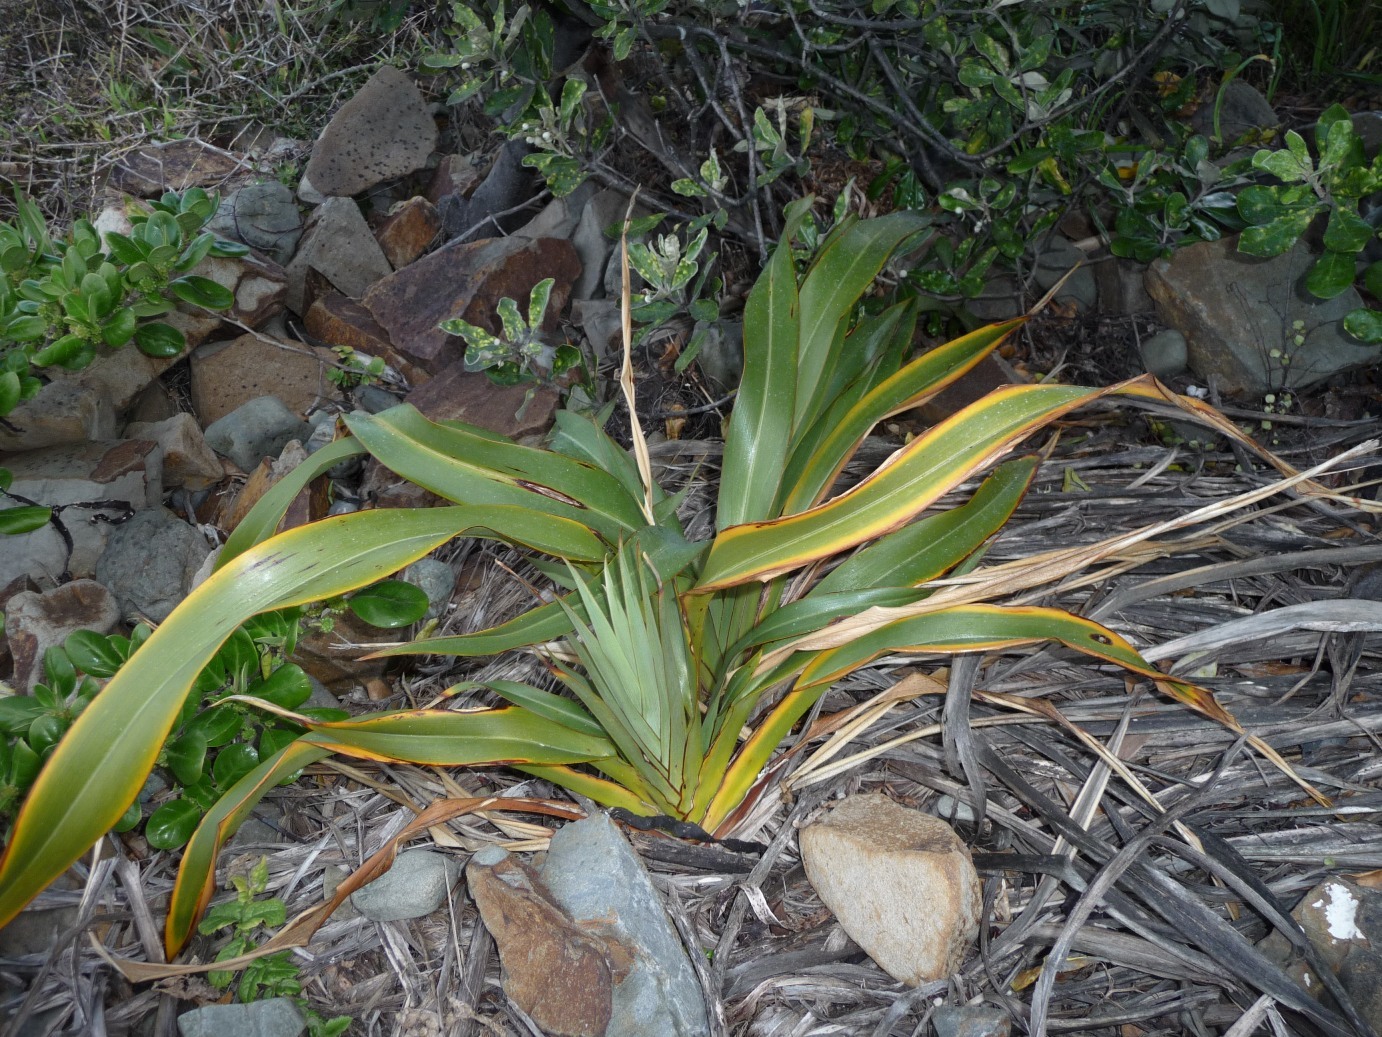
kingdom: Plantae
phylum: Tracheophyta
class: Liliopsida
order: Asparagales
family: Asphodelaceae
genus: Phormium
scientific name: Phormium colensoi
